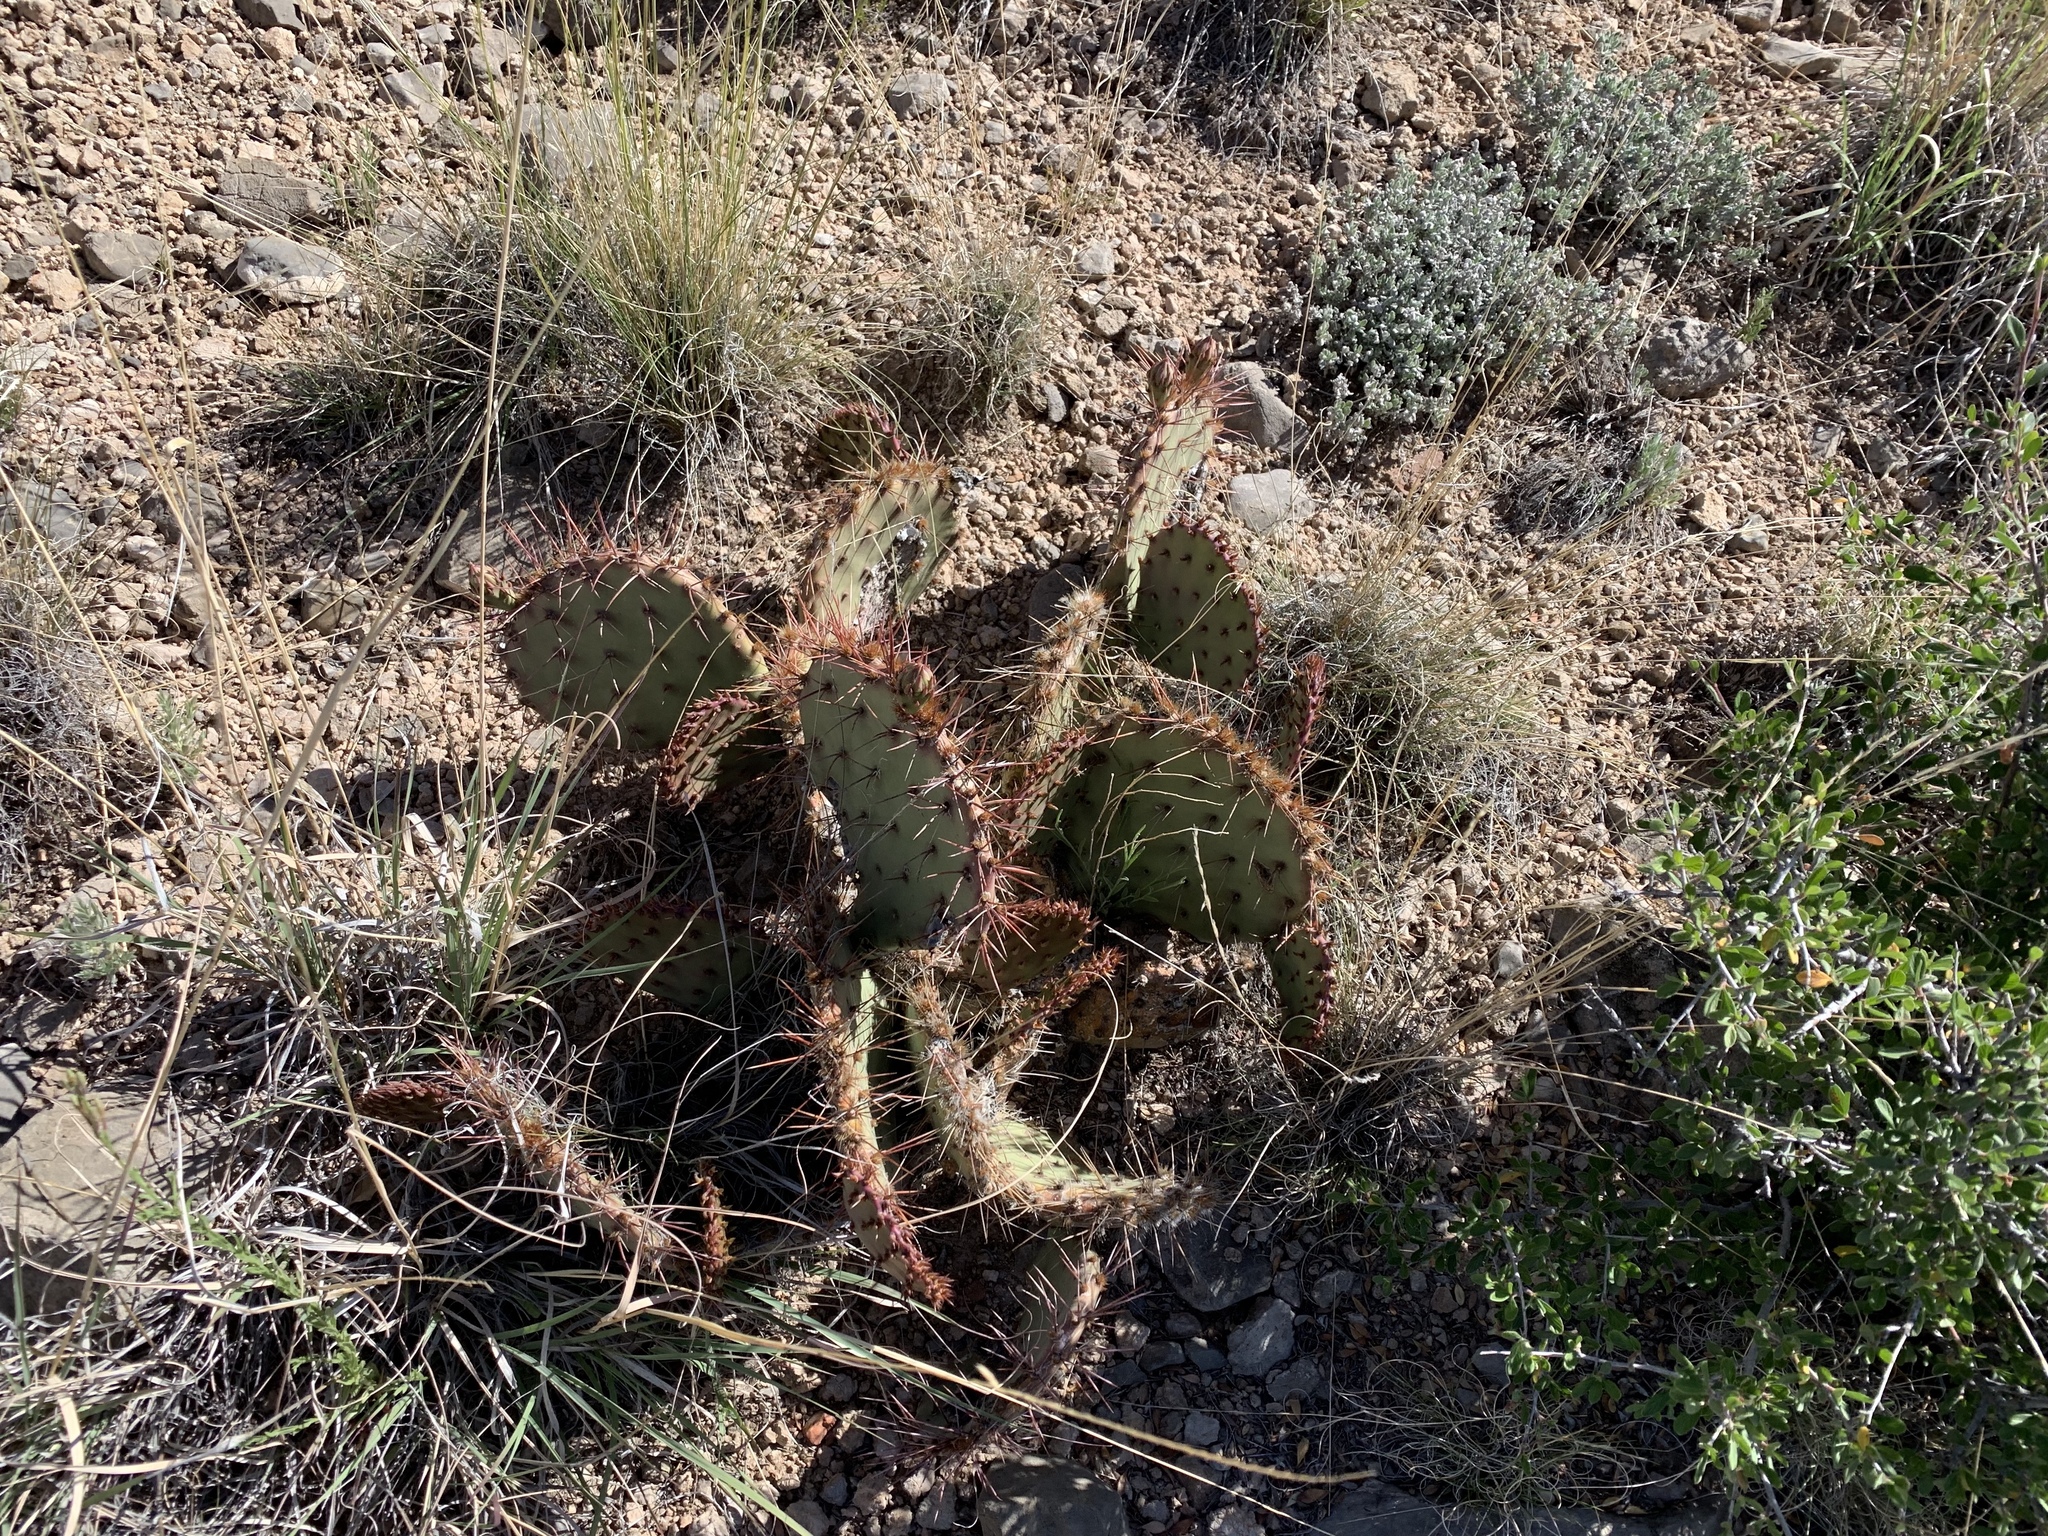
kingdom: Plantae
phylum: Tracheophyta
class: Magnoliopsida
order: Caryophyllales
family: Cactaceae
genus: Opuntia
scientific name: Opuntia phaeacantha
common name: New mexico prickly-pear
